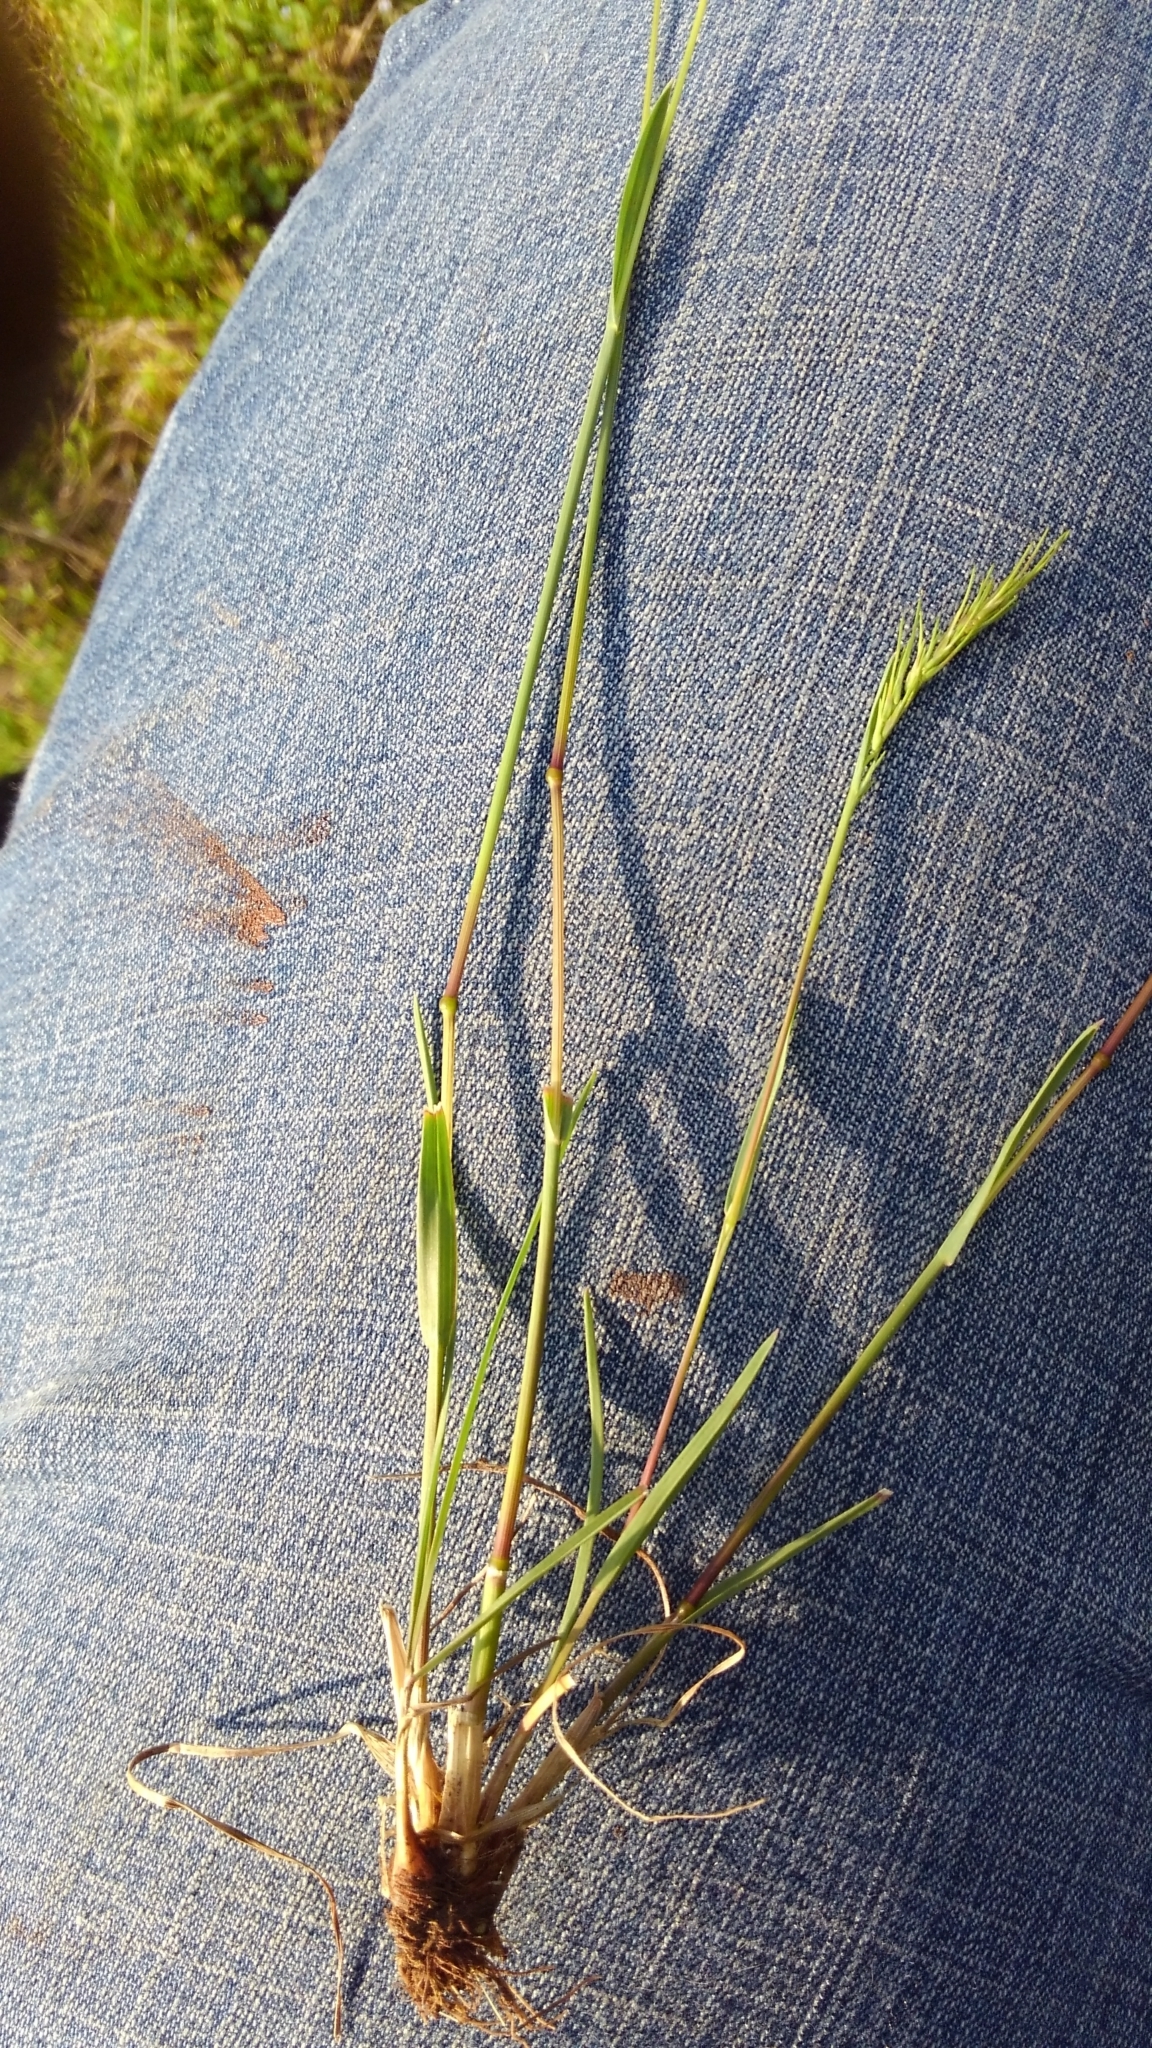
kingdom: Plantae
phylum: Tracheophyta
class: Liliopsida
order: Poales
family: Poaceae
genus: Poa
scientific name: Poa bulbosa
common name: Bulbous bluegrass
